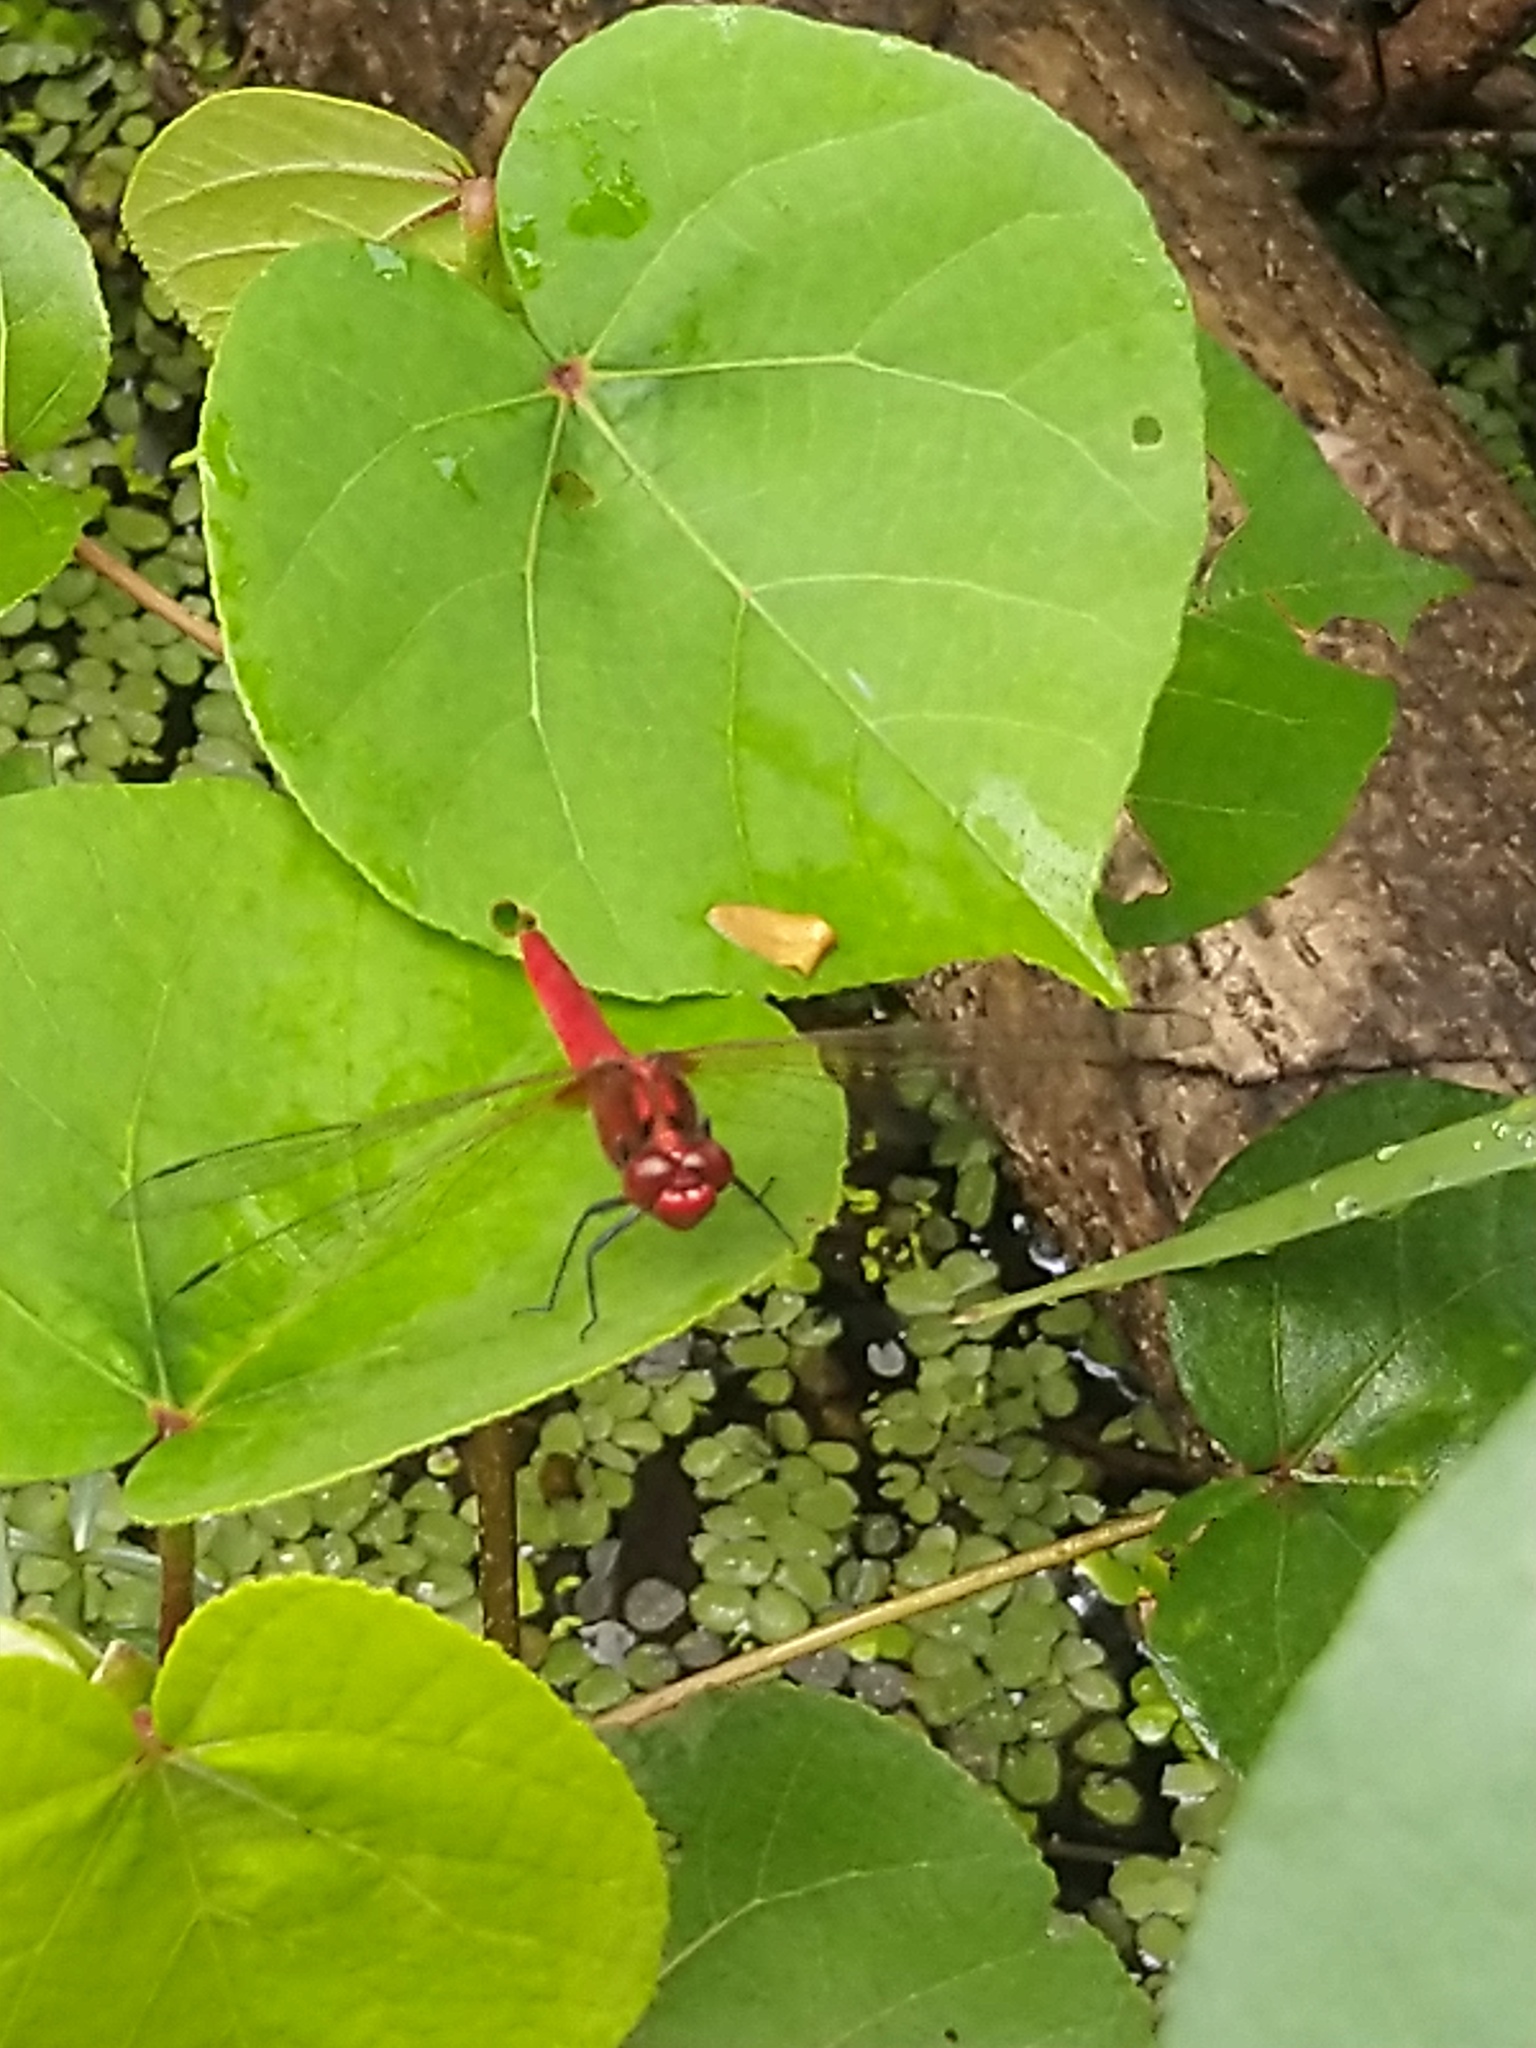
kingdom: Animalia
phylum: Arthropoda
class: Insecta
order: Odonata
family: Libellulidae
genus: Rhodothemis
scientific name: Rhodothemis rufa
